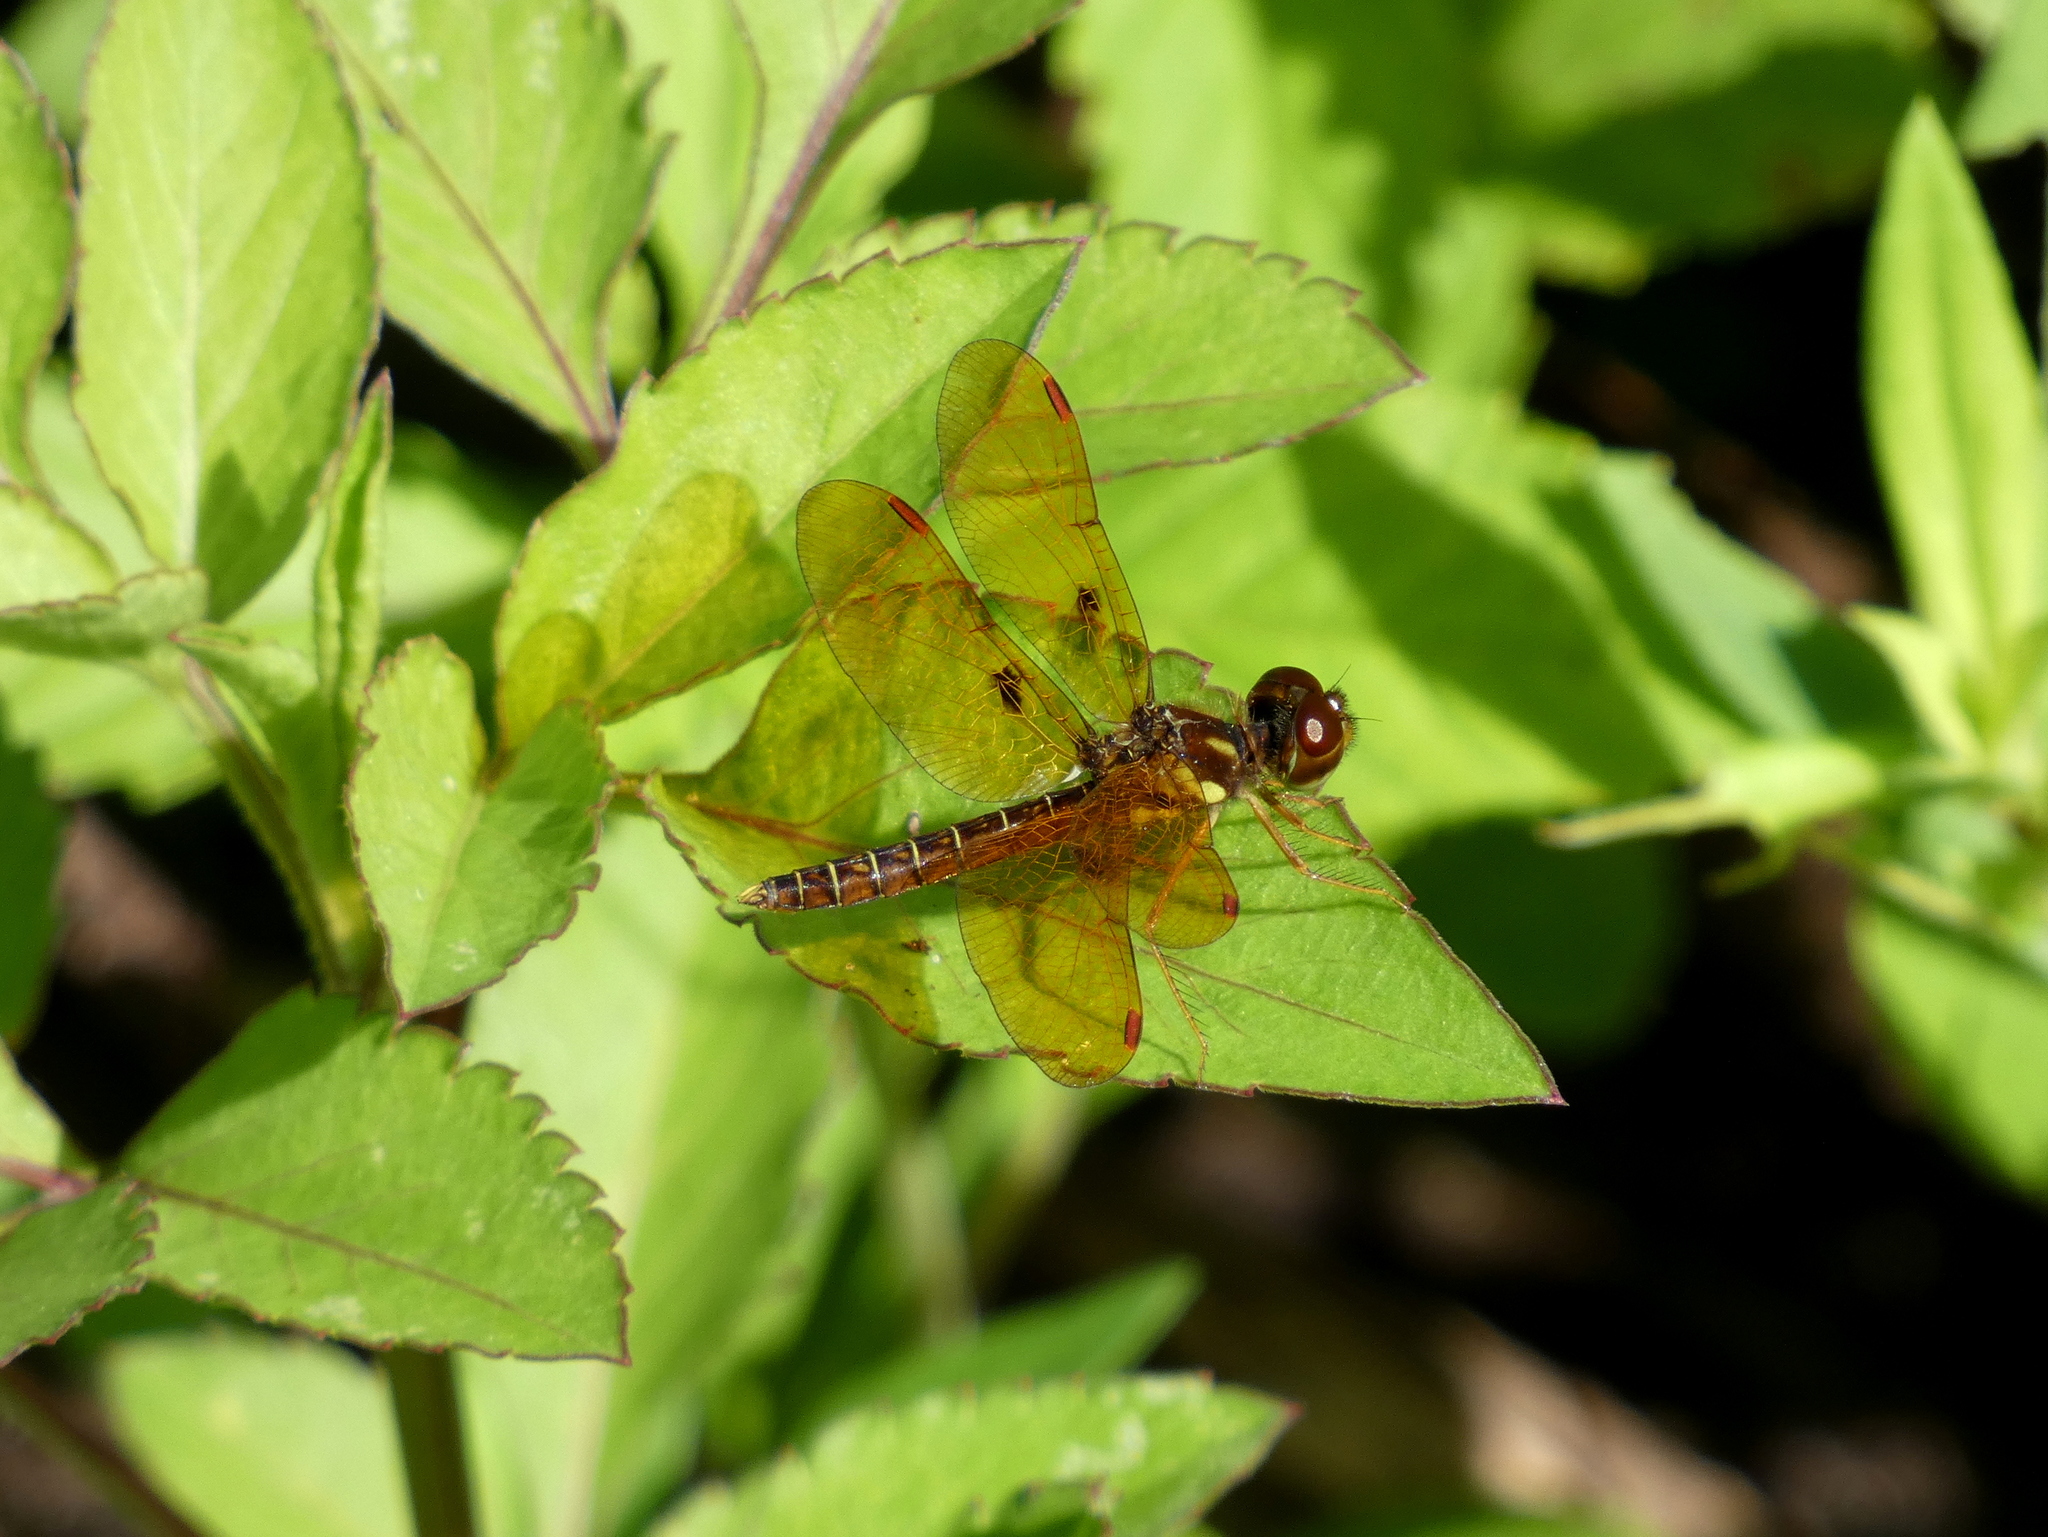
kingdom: Animalia
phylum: Arthropoda
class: Insecta
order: Odonata
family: Libellulidae
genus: Perithemis
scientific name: Perithemis tenera
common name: Eastern amberwing
